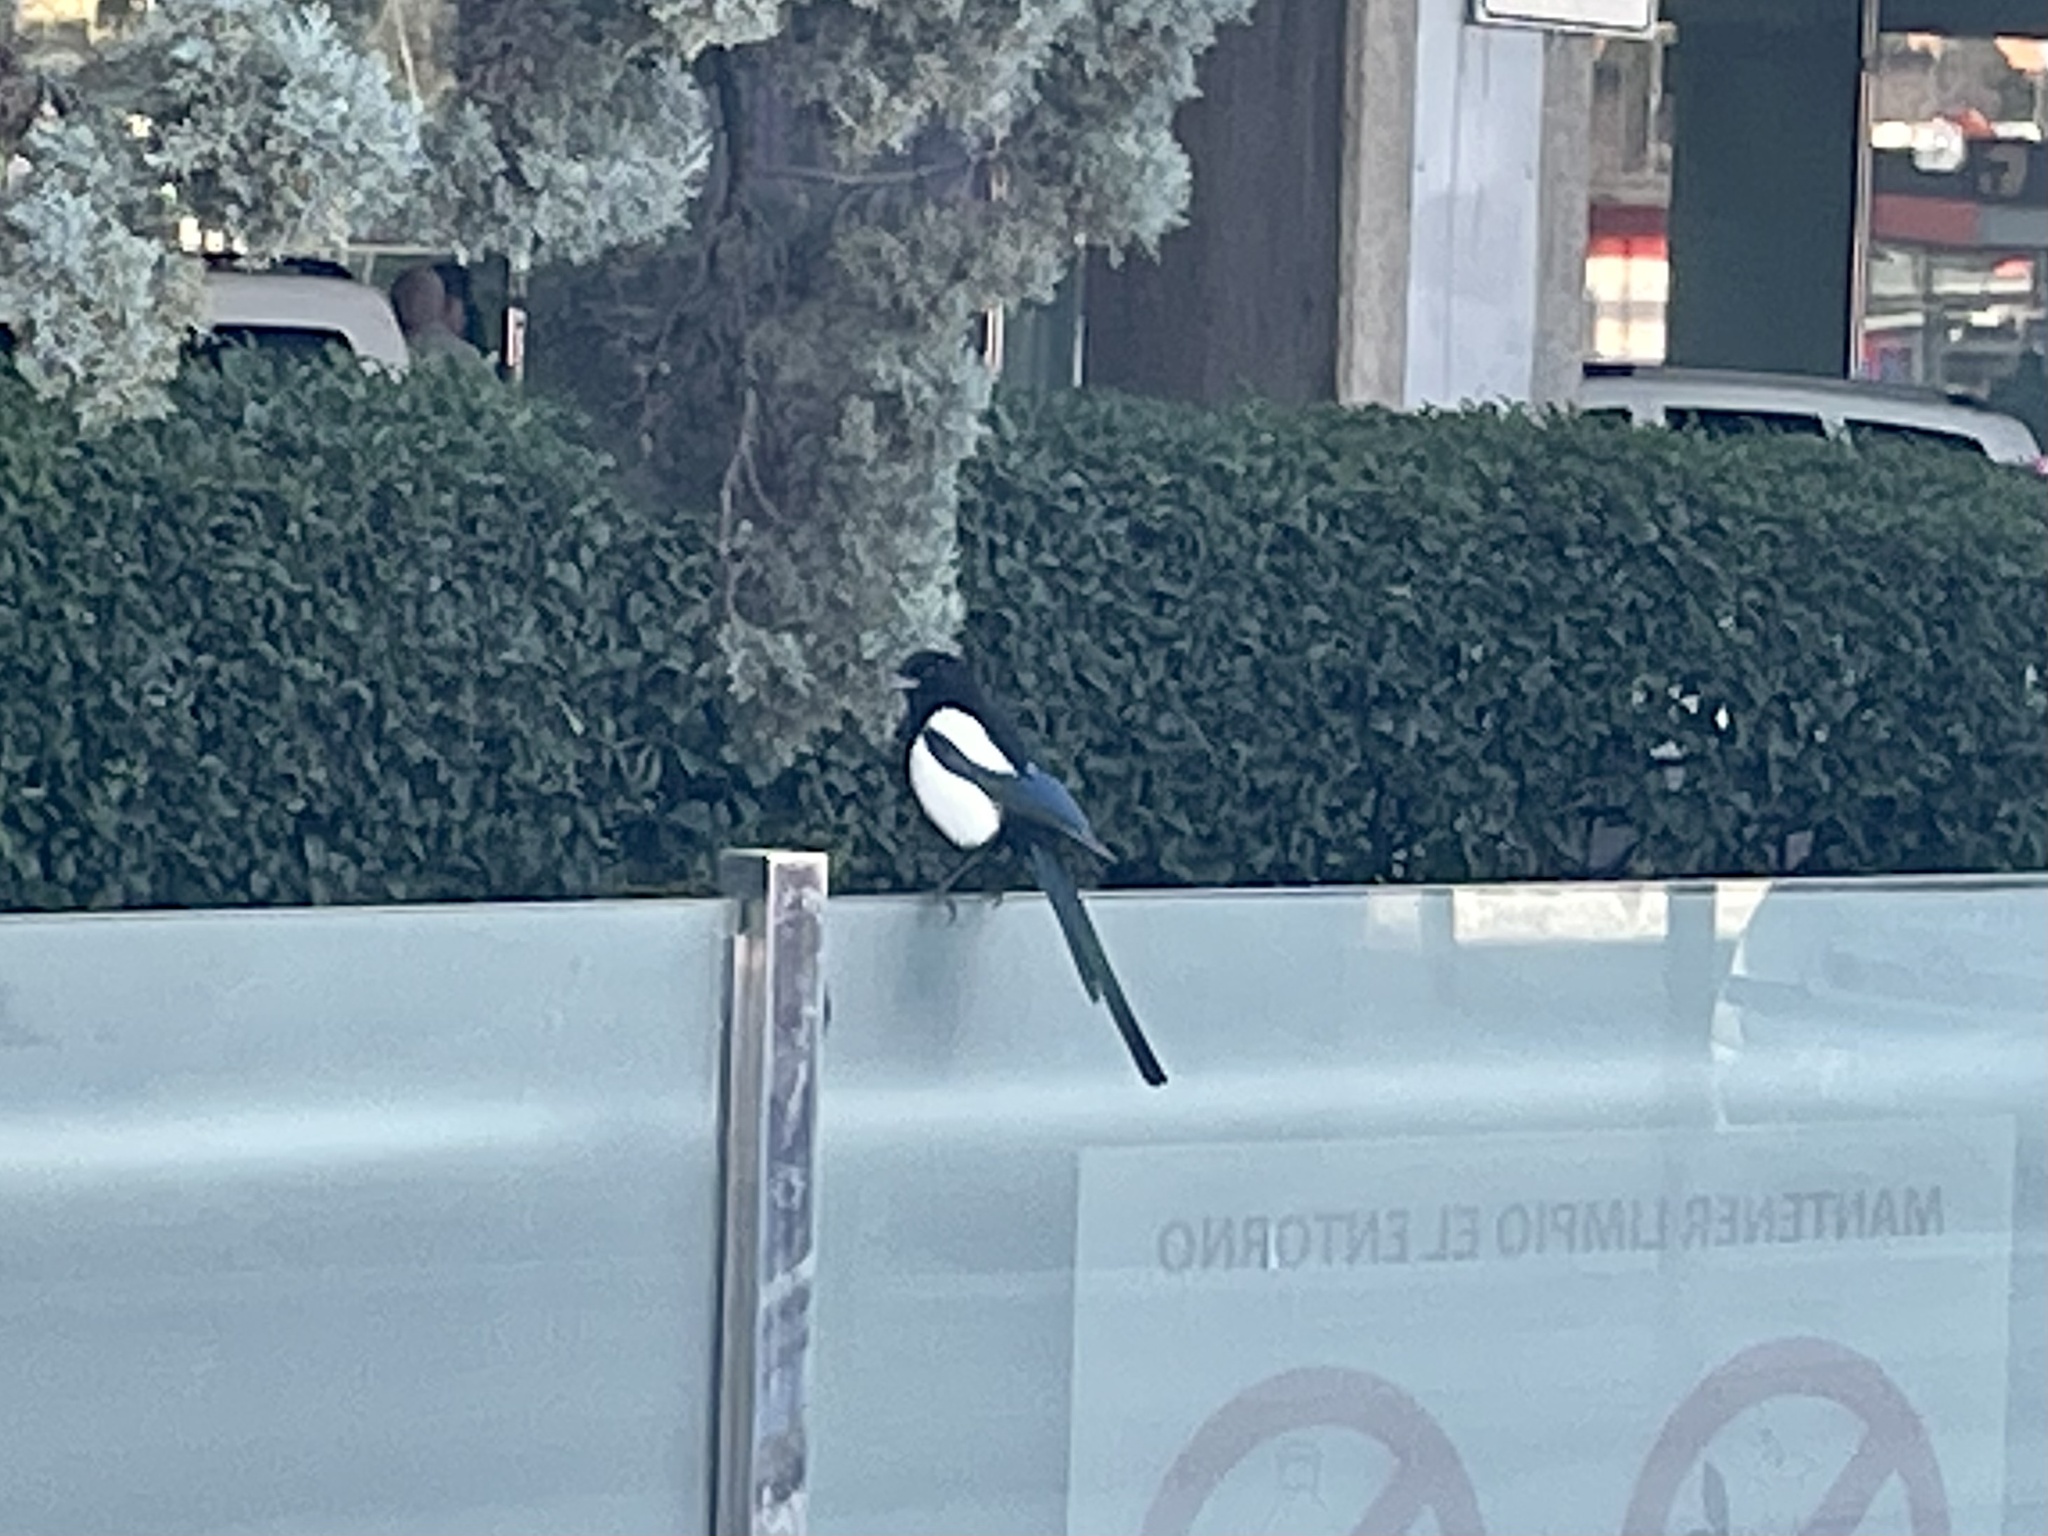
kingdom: Animalia
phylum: Chordata
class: Aves
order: Passeriformes
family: Corvidae
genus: Pica
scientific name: Pica pica
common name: Eurasian magpie
